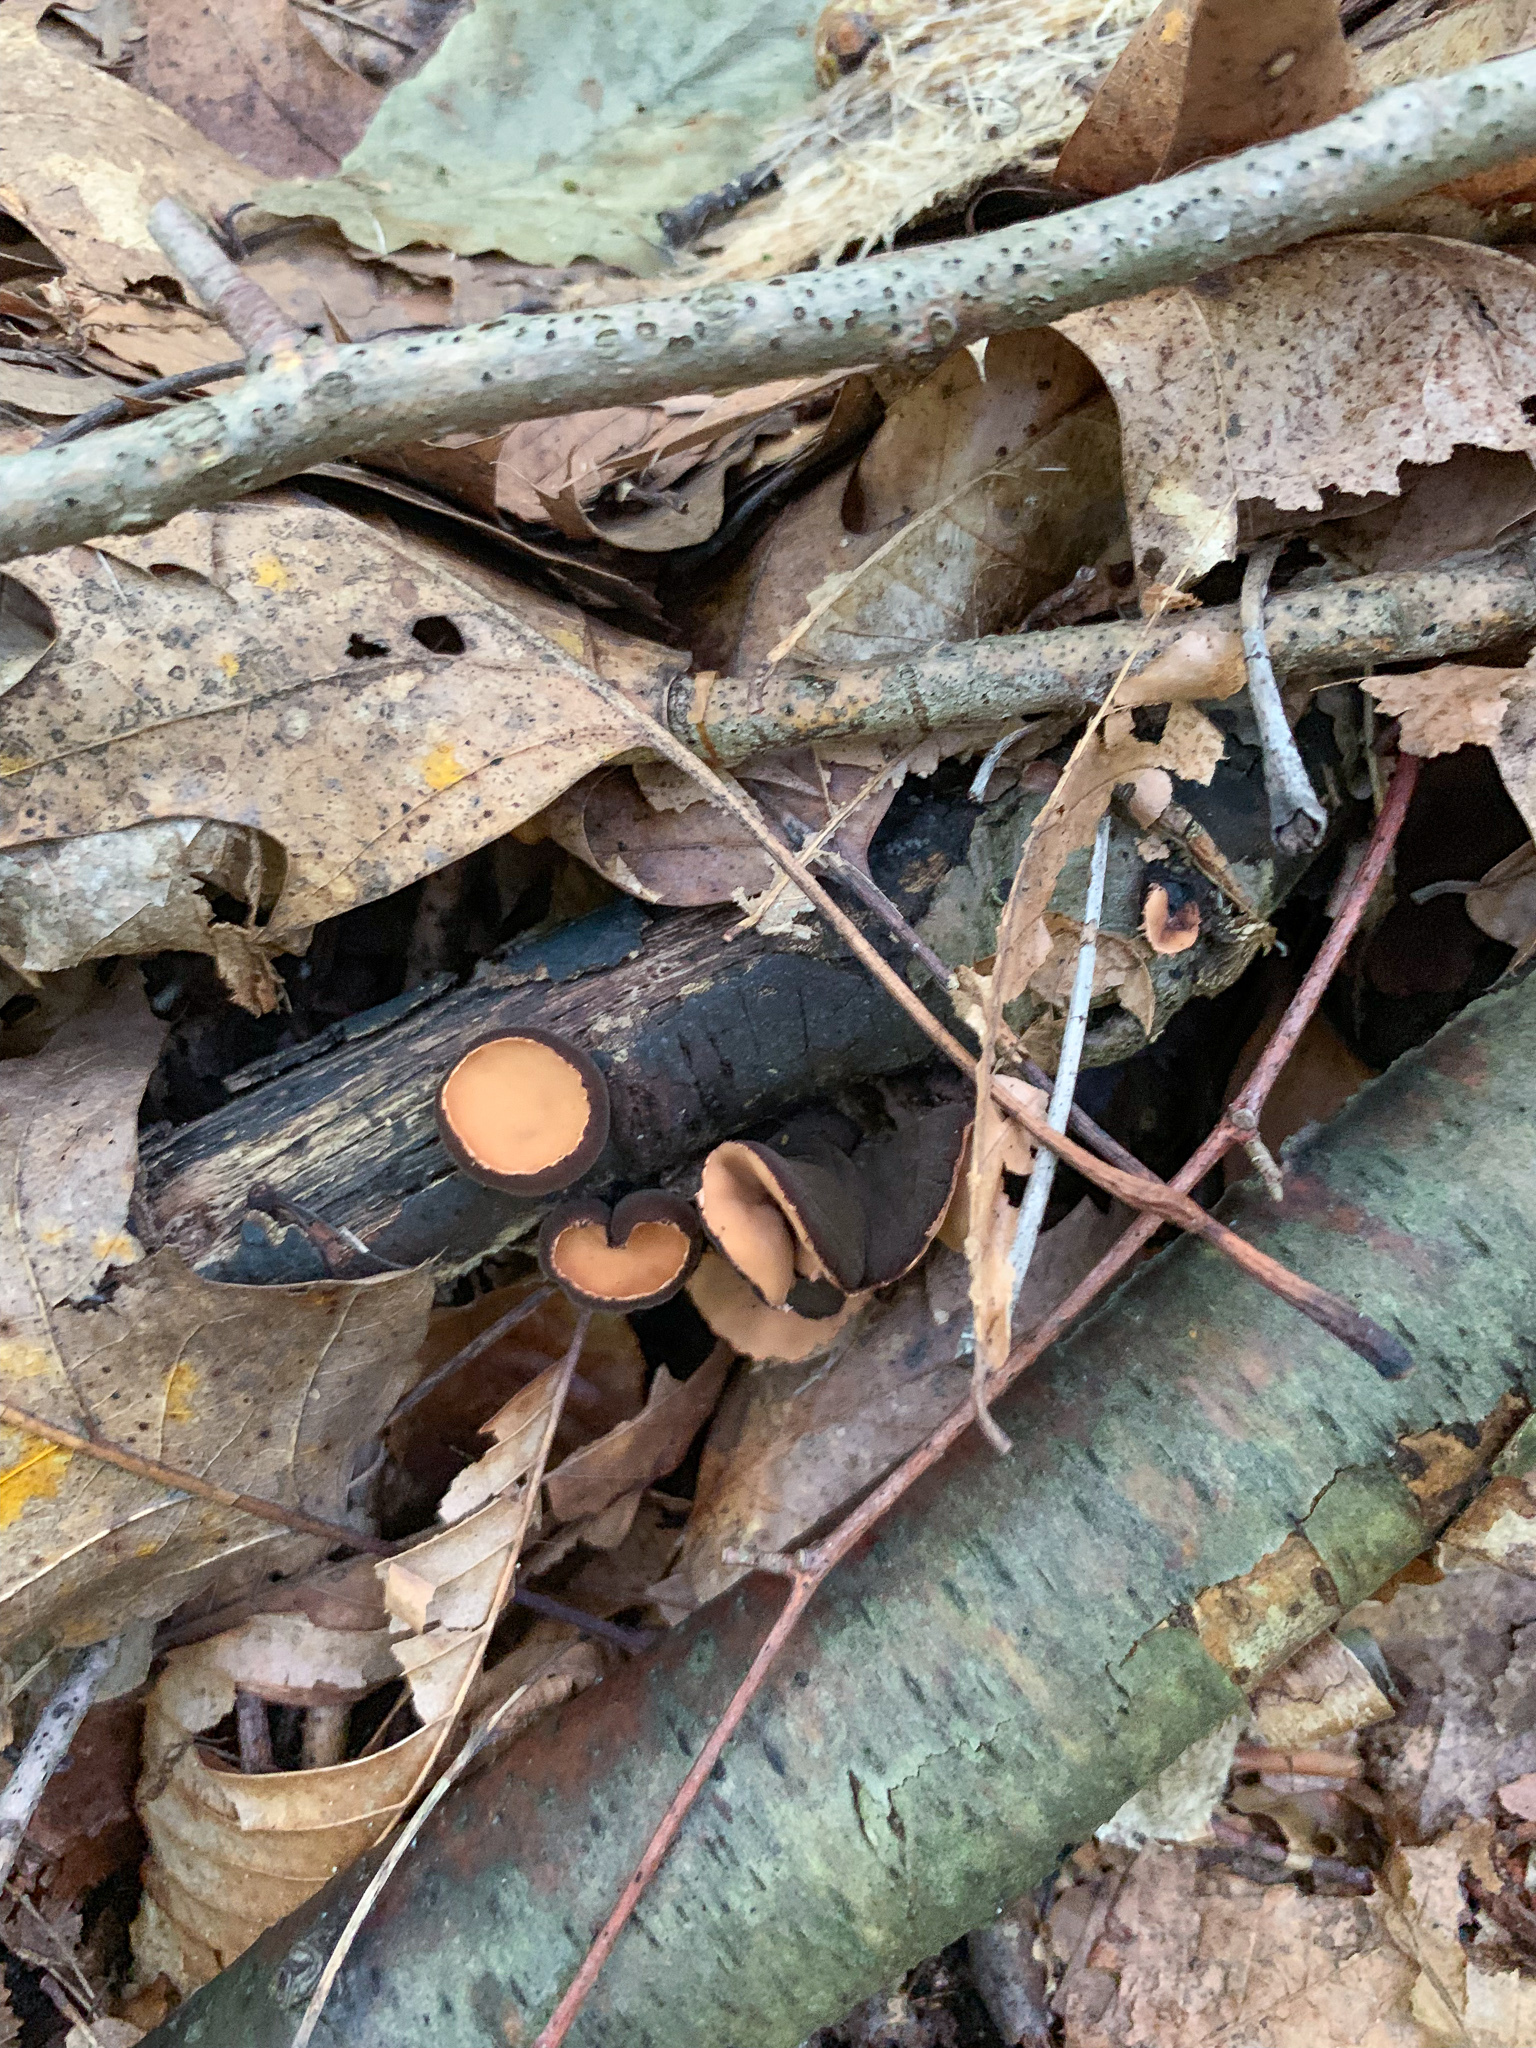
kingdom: Fungi
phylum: Ascomycota
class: Pezizomycetes
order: Pezizales
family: Sarcosomataceae
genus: Galiella
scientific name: Galiella rufa
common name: Hairy rubber cup
